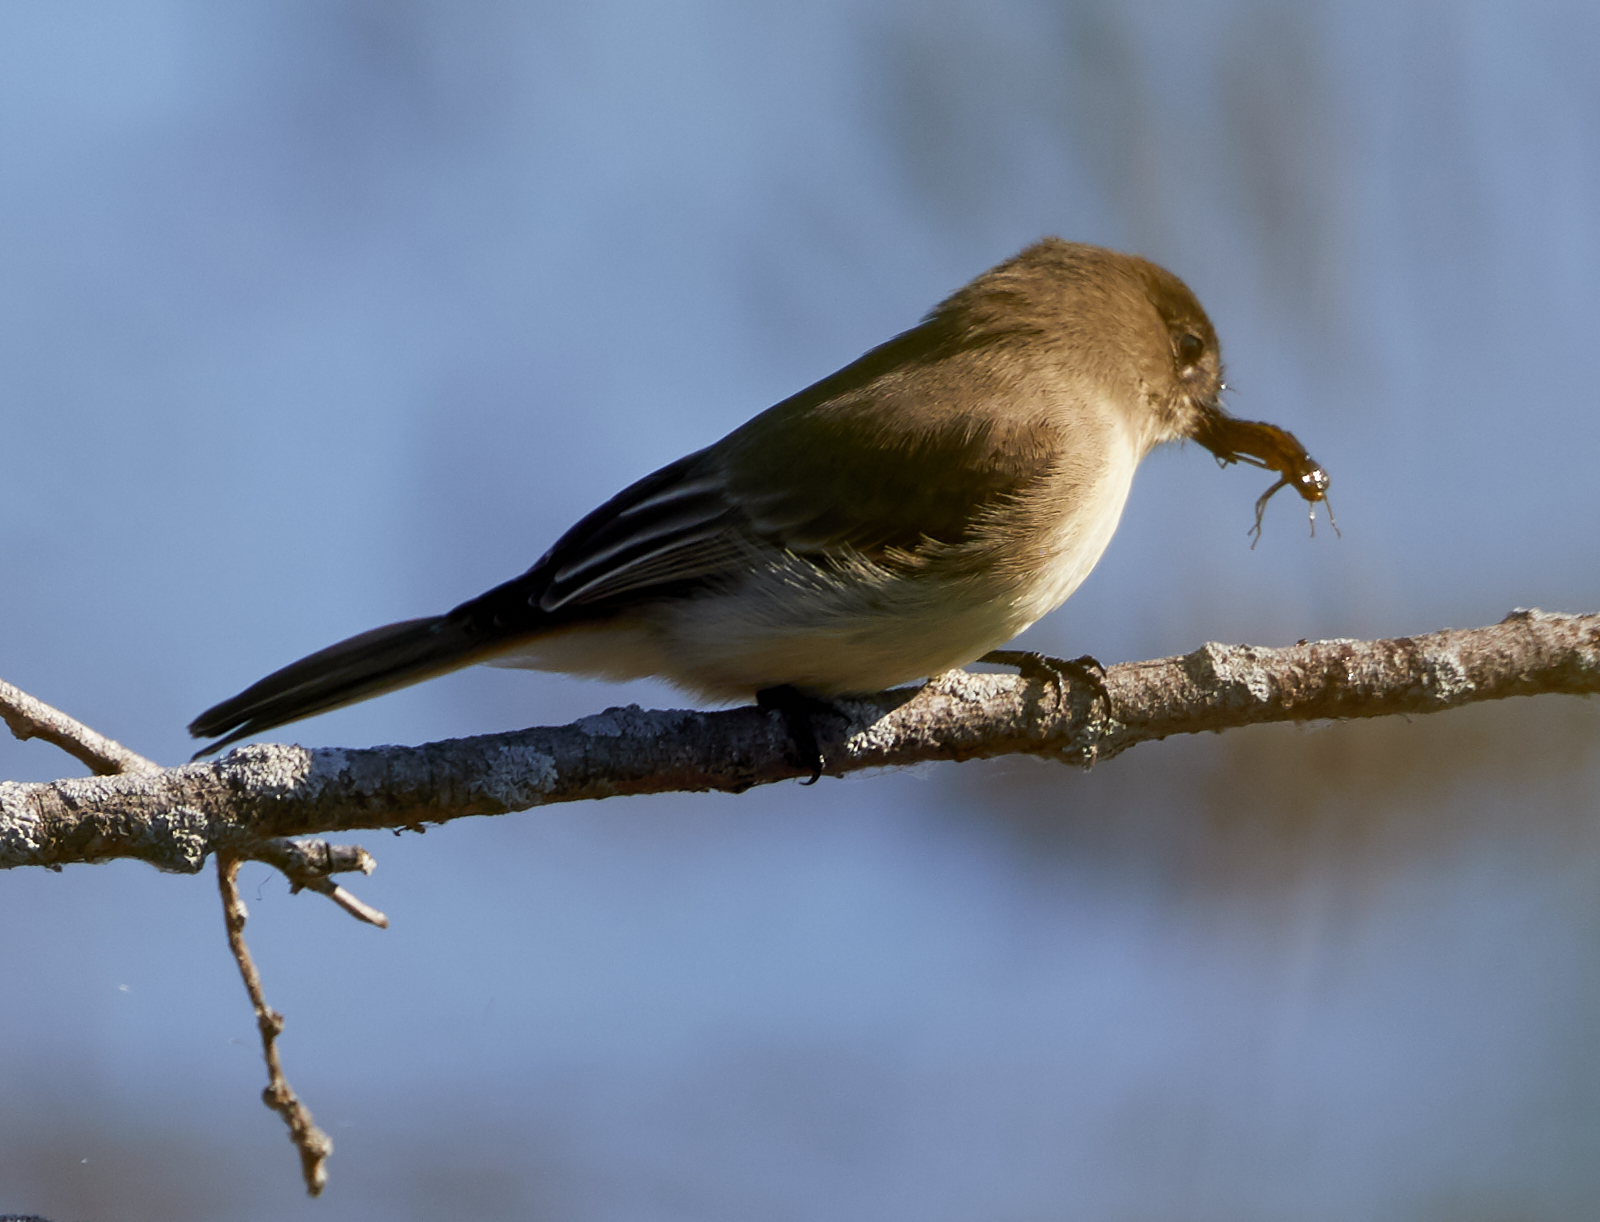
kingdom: Animalia
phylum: Chordata
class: Aves
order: Passeriformes
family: Tyrannidae
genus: Sayornis
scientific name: Sayornis phoebe
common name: Eastern phoebe
